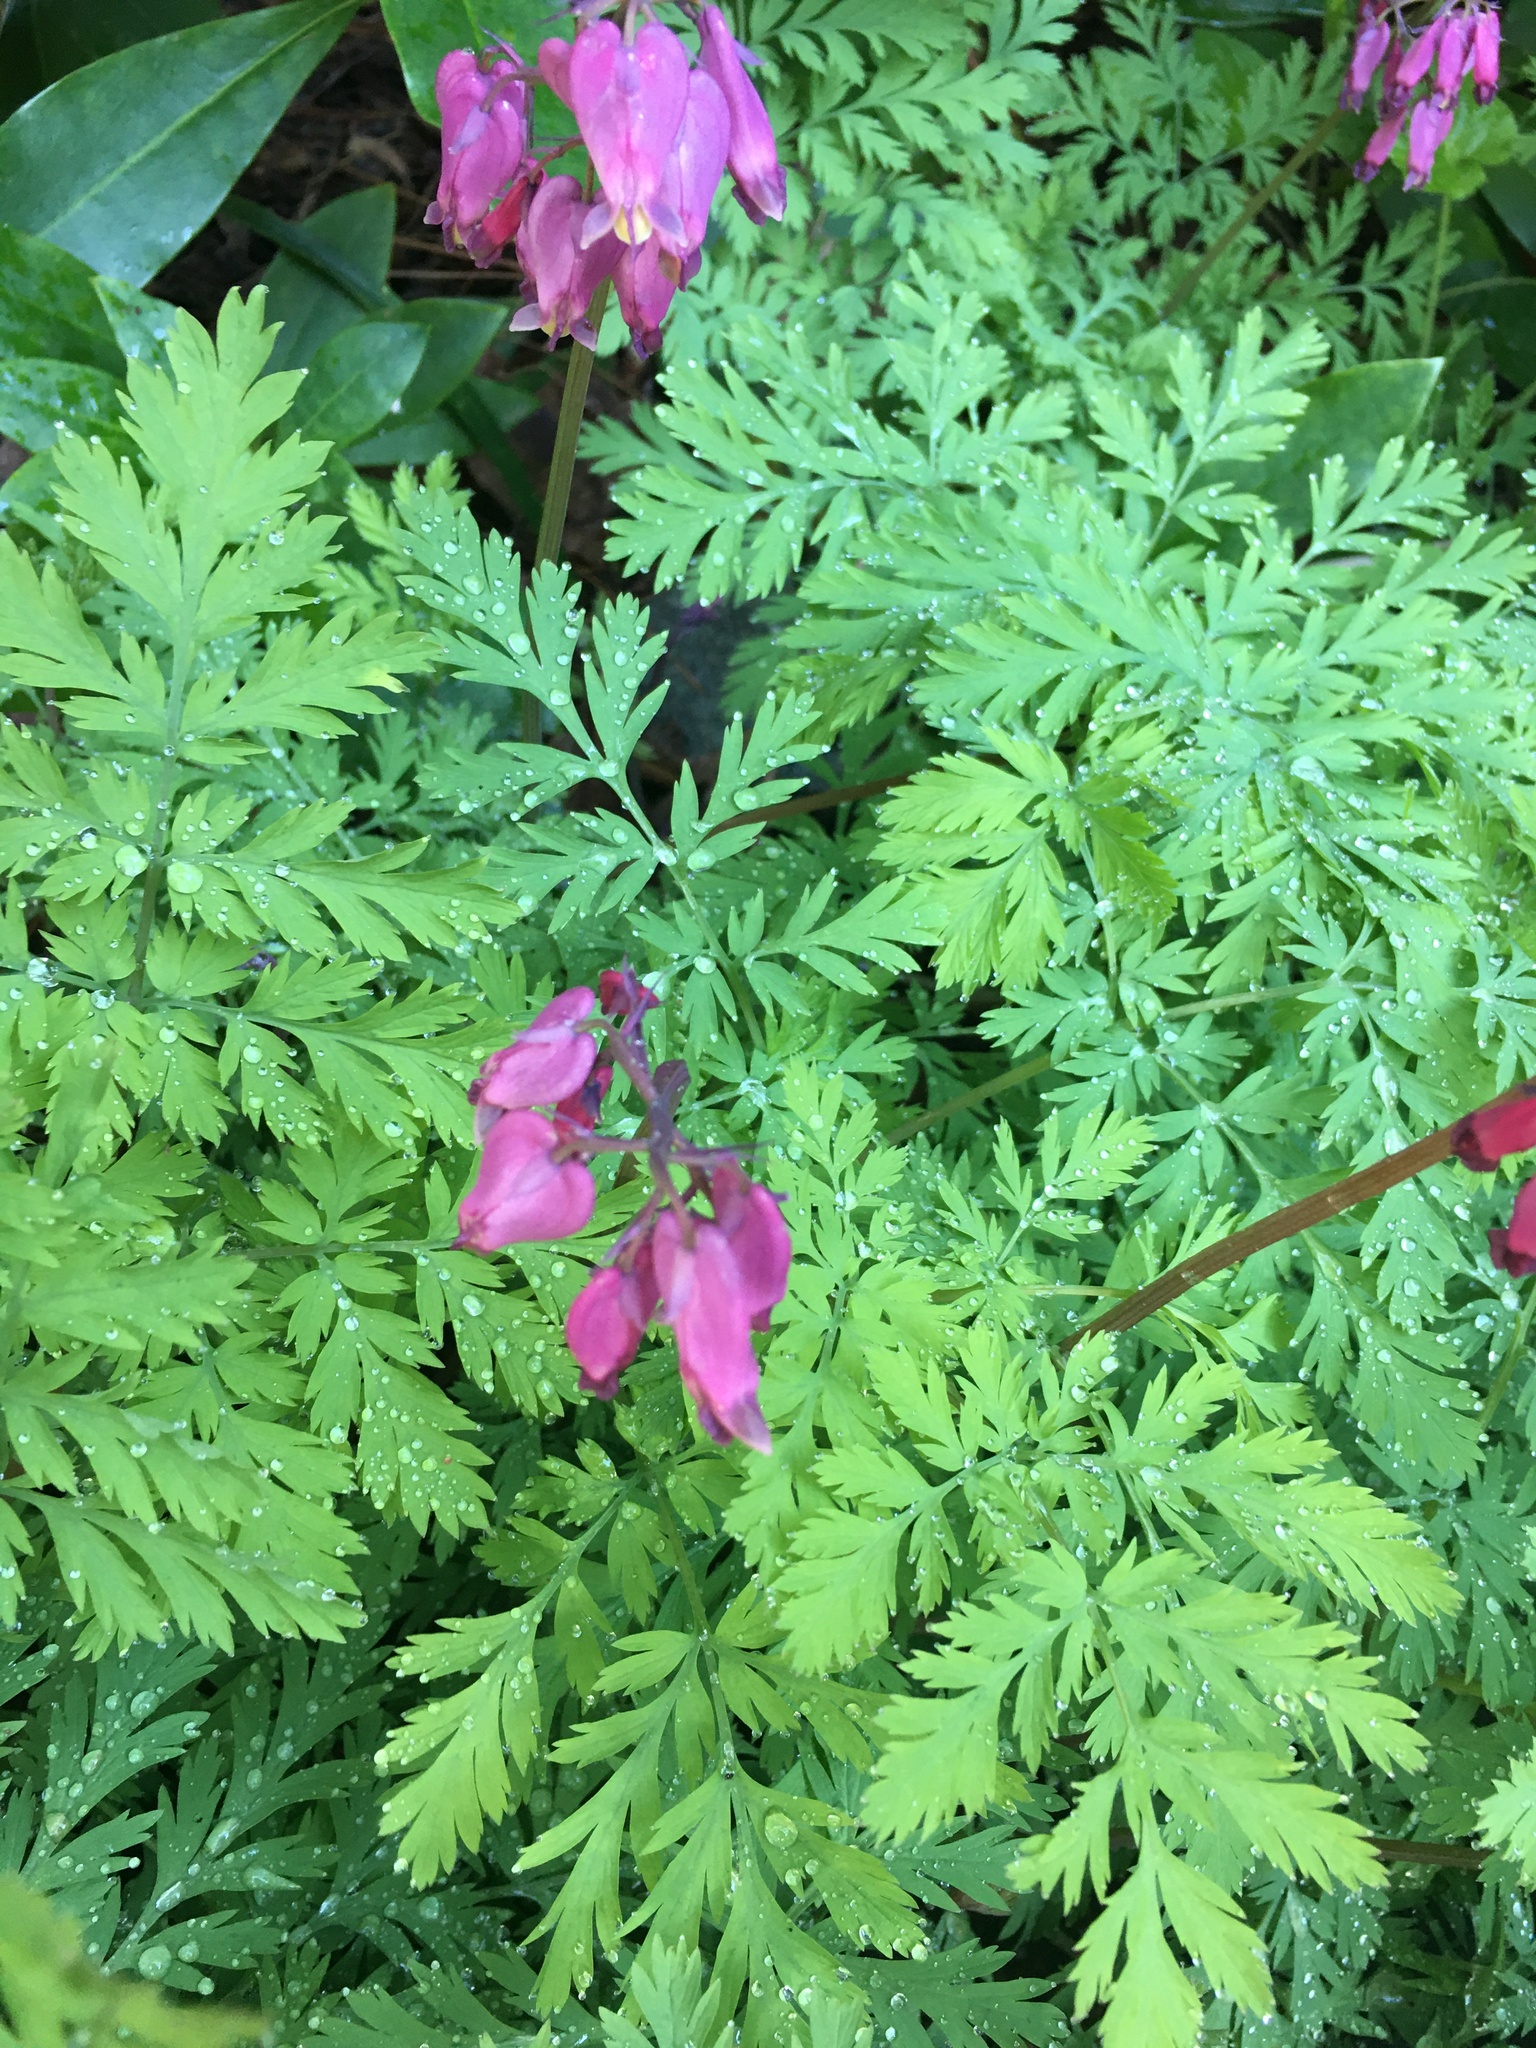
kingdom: Plantae
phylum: Tracheophyta
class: Magnoliopsida
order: Ranunculales
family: Papaveraceae
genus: Dicentra
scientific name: Dicentra formosa
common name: Bleeding-heart
